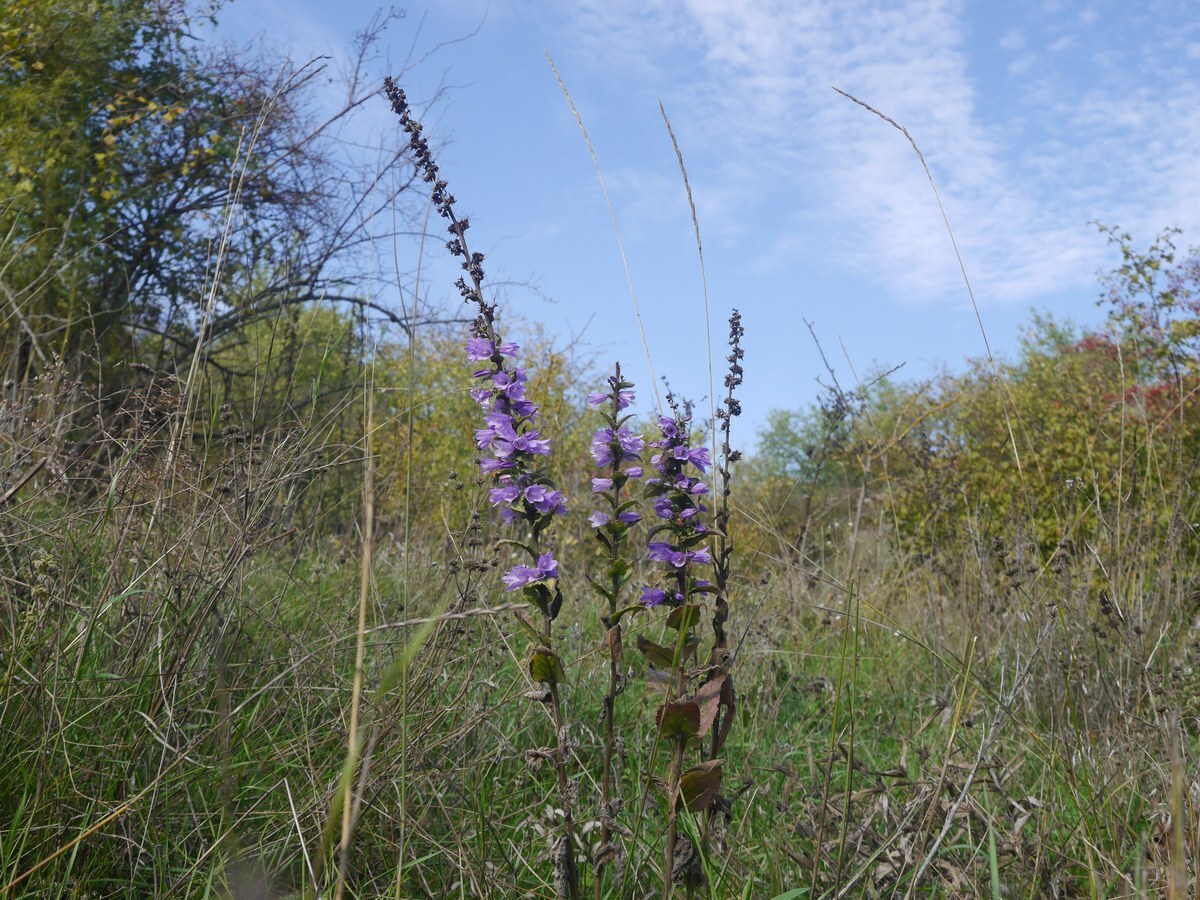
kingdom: Plantae
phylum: Tracheophyta
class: Magnoliopsida
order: Asterales
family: Campanulaceae
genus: Campanula
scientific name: Campanula bononiensis
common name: Pale bellflower
